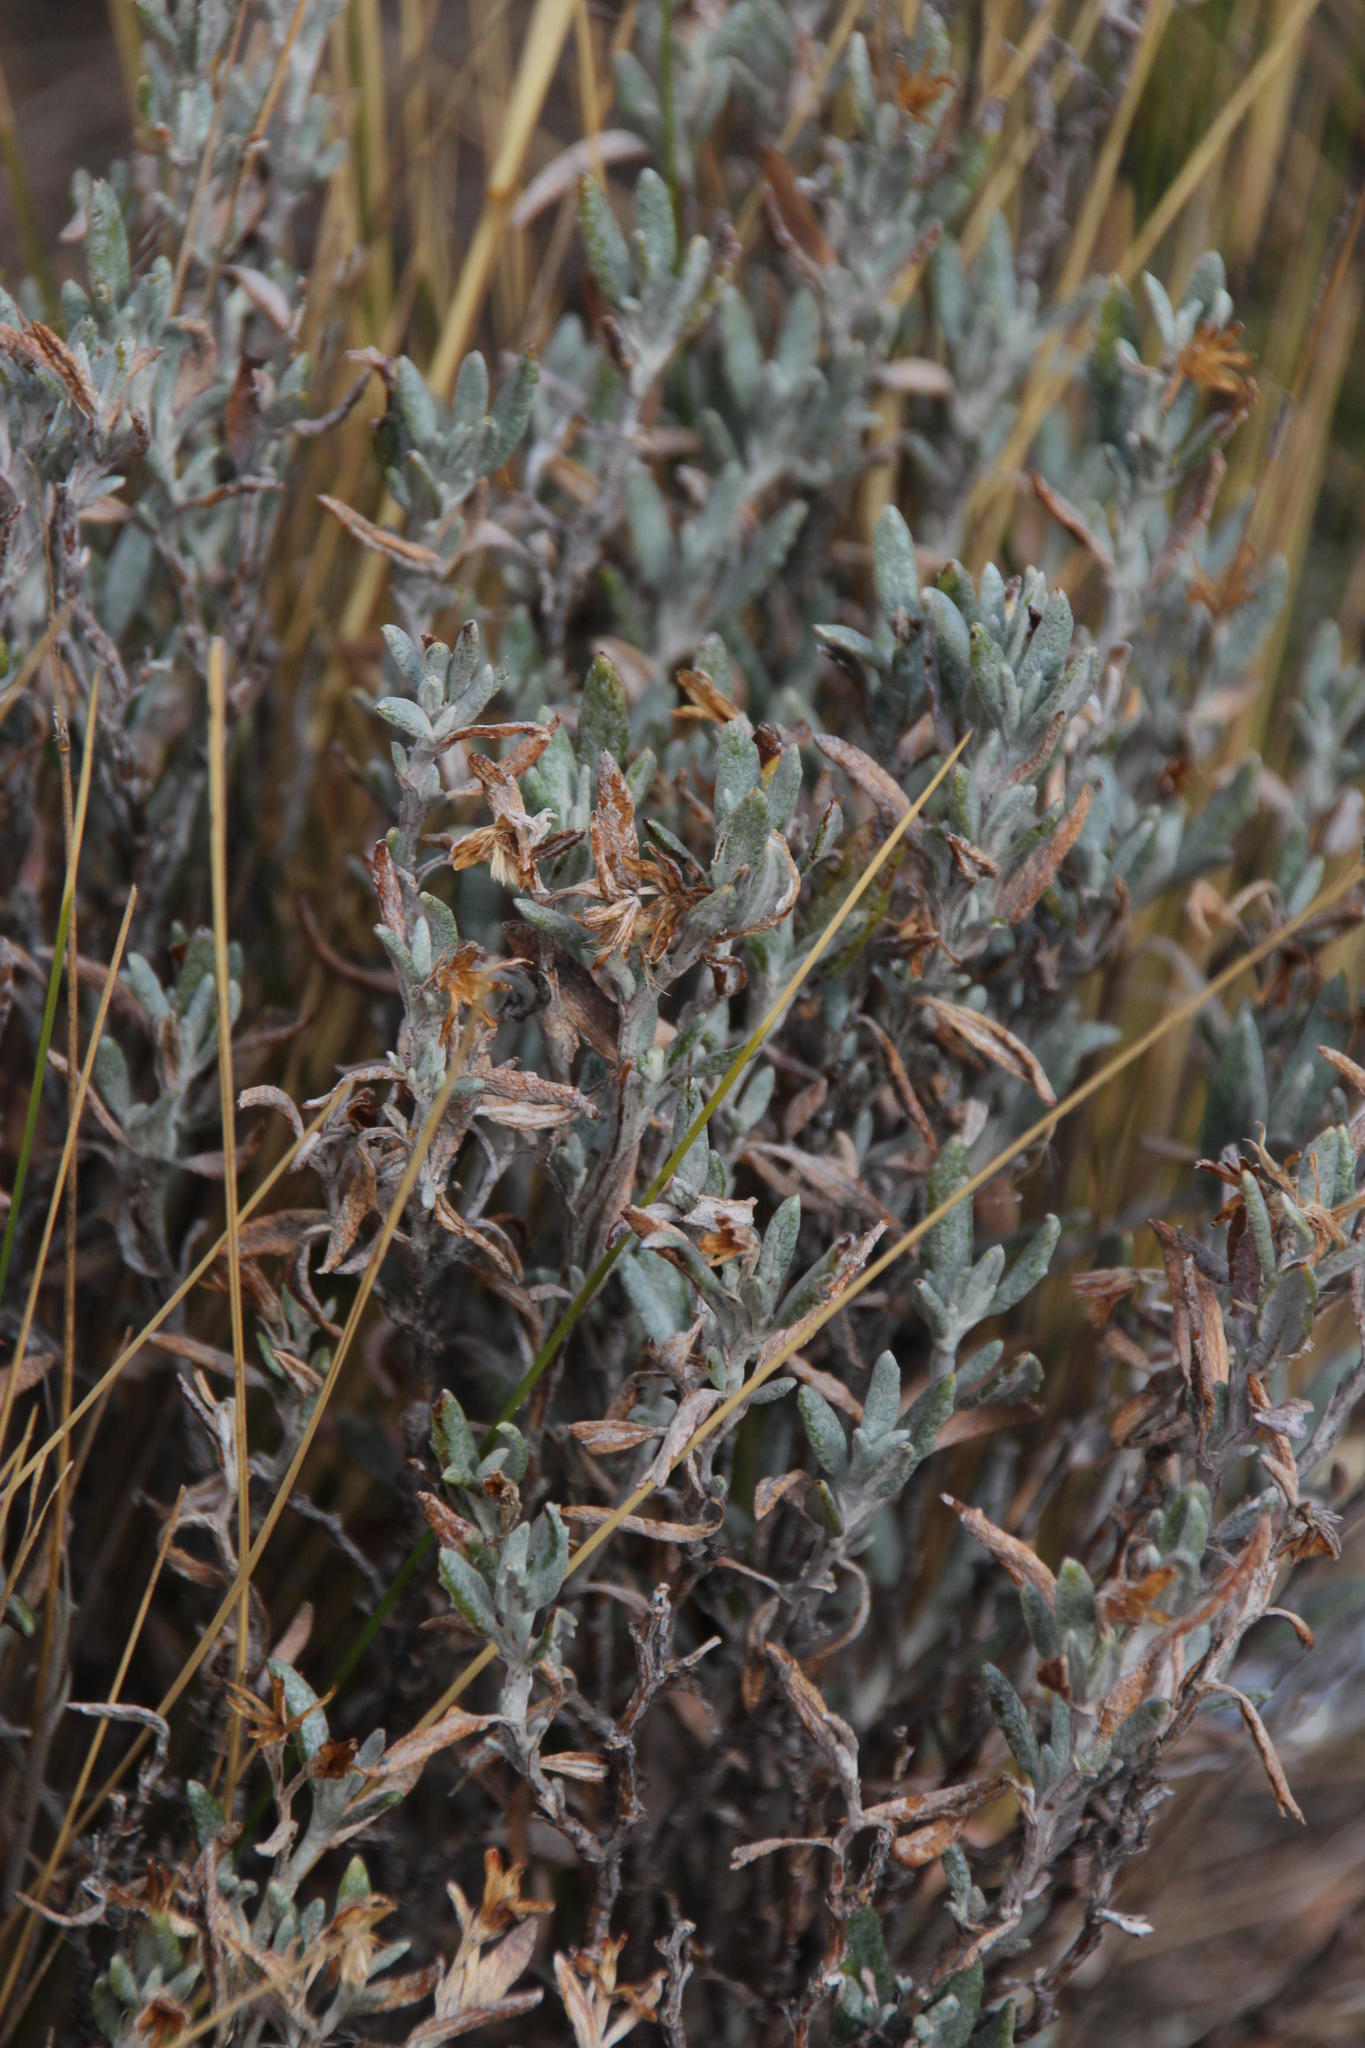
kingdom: Plantae
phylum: Tracheophyta
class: Magnoliopsida
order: Asterales
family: Asteraceae
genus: Chersodoma
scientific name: Chersodoma jodopappa
